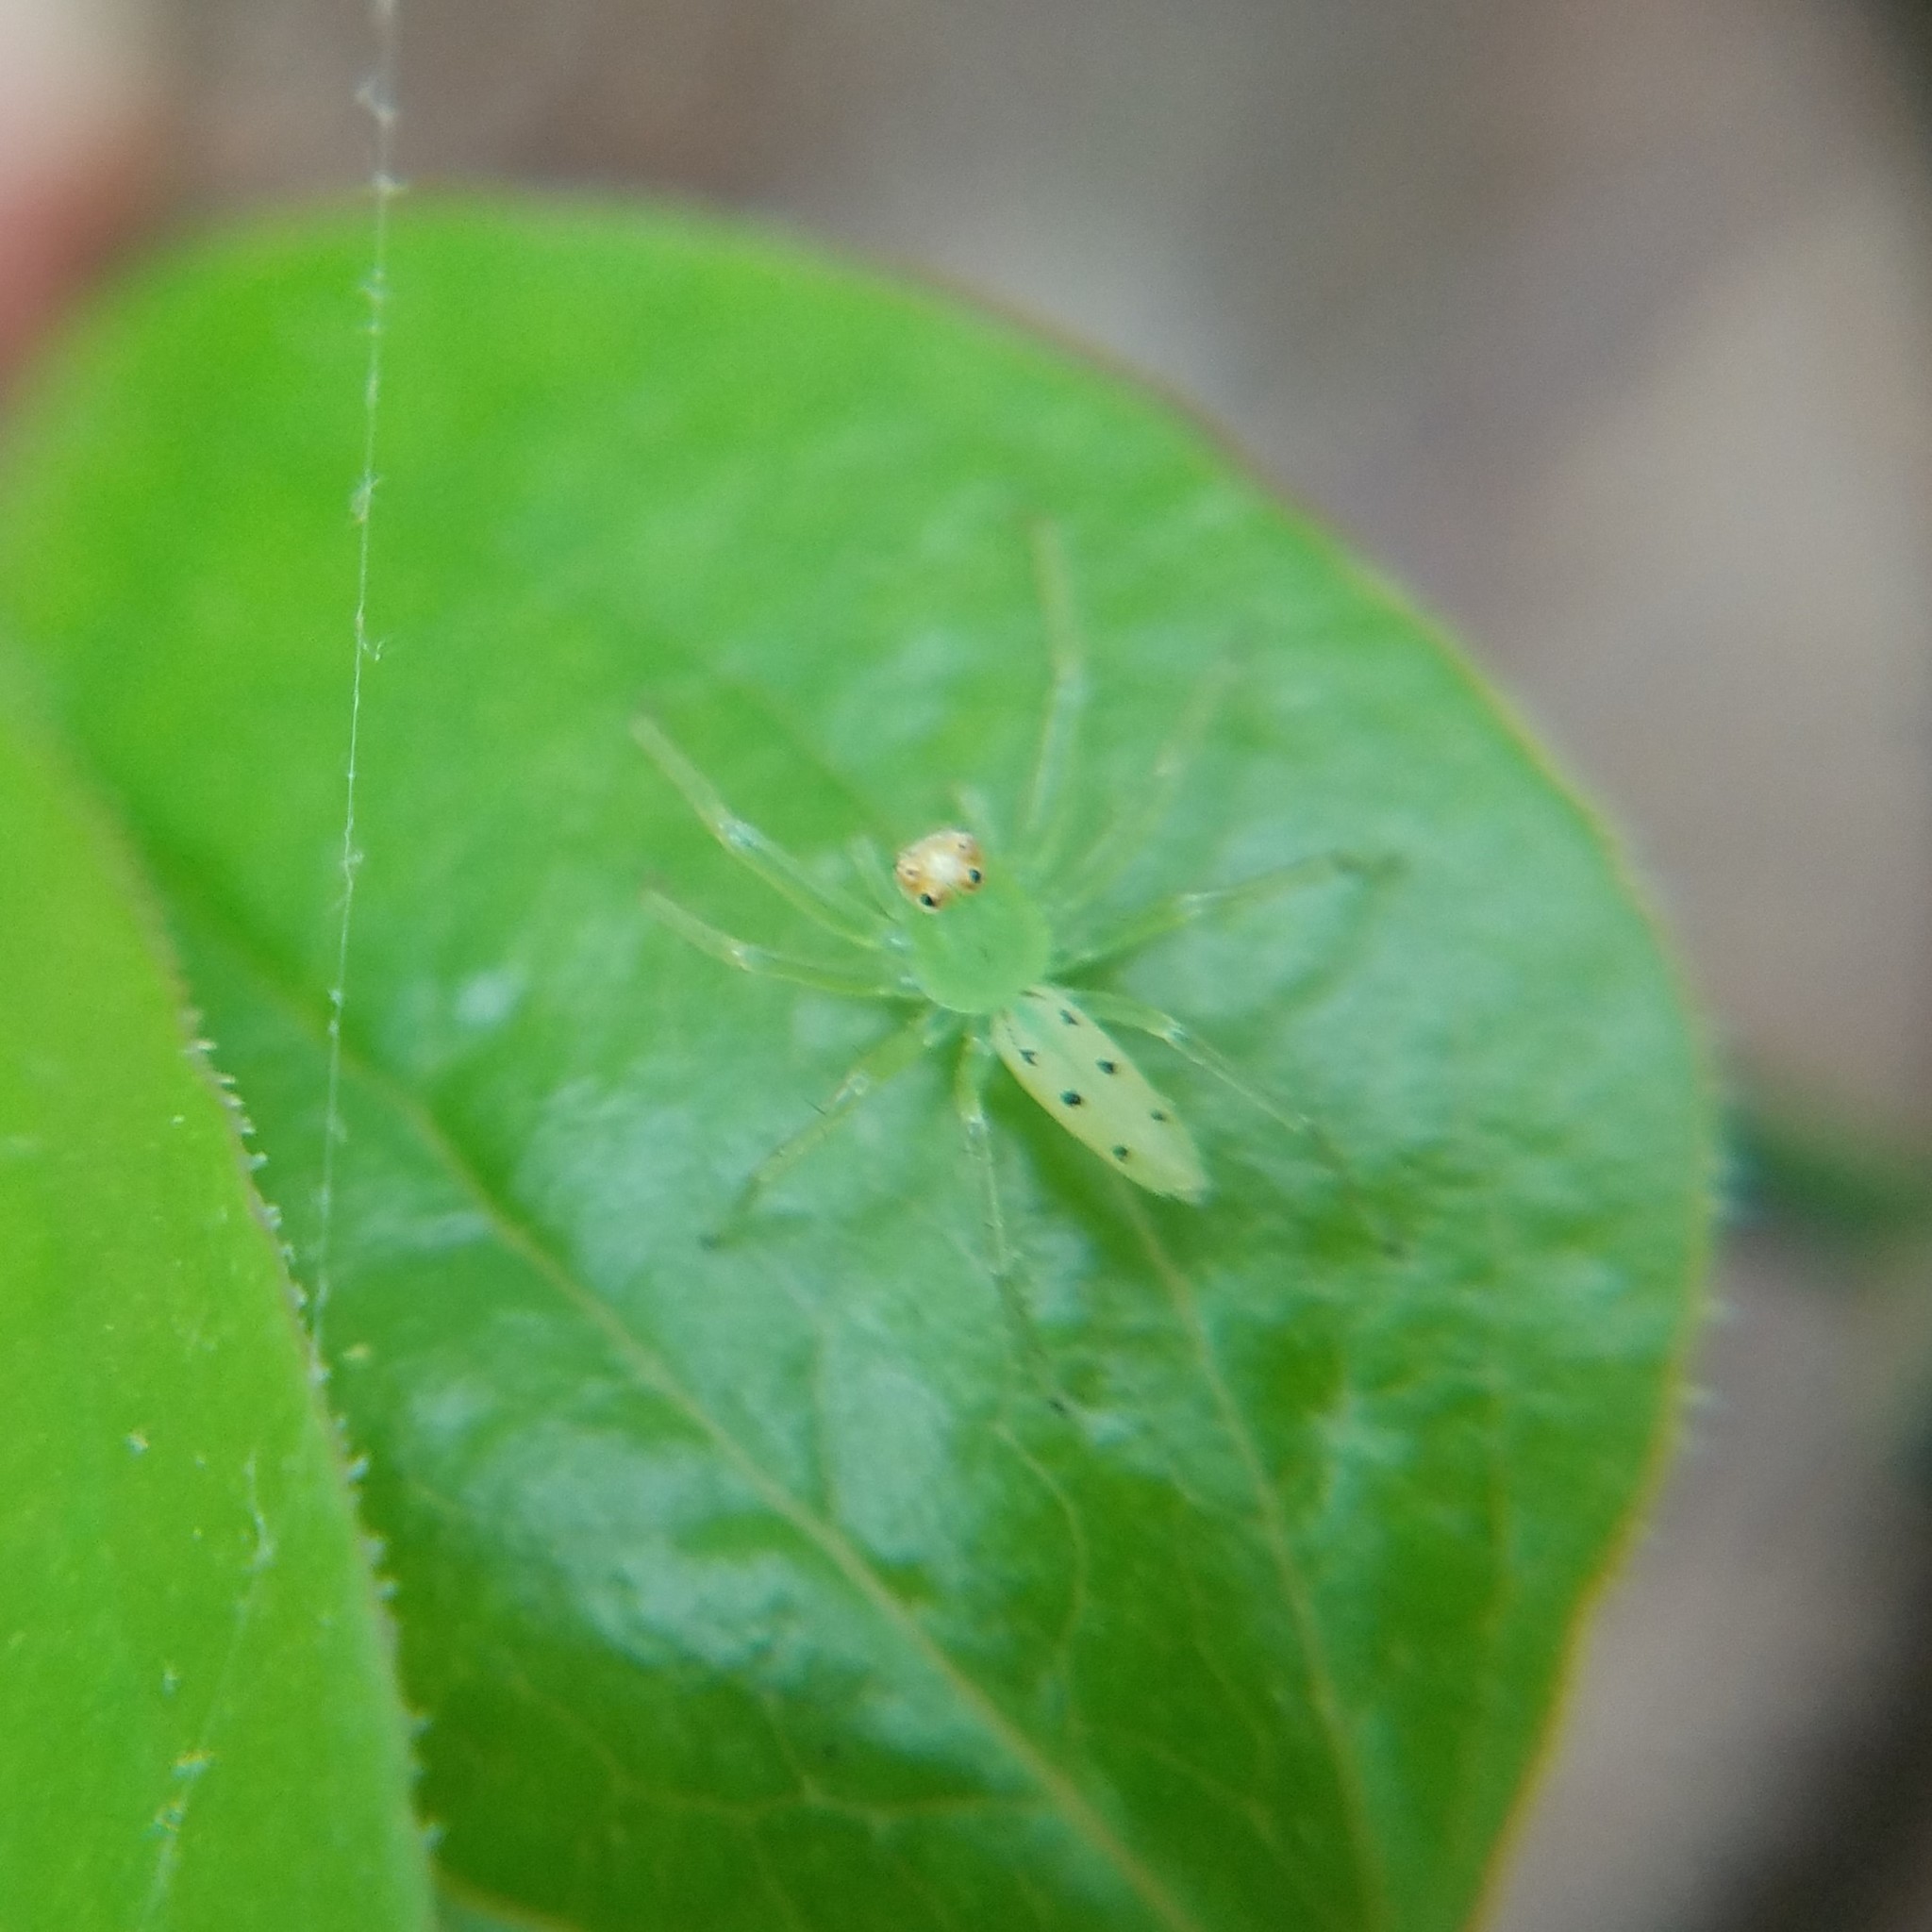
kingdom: Animalia
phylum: Arthropoda
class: Arachnida
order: Araneae
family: Salticidae
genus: Lyssomanes
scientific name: Lyssomanes viridis
